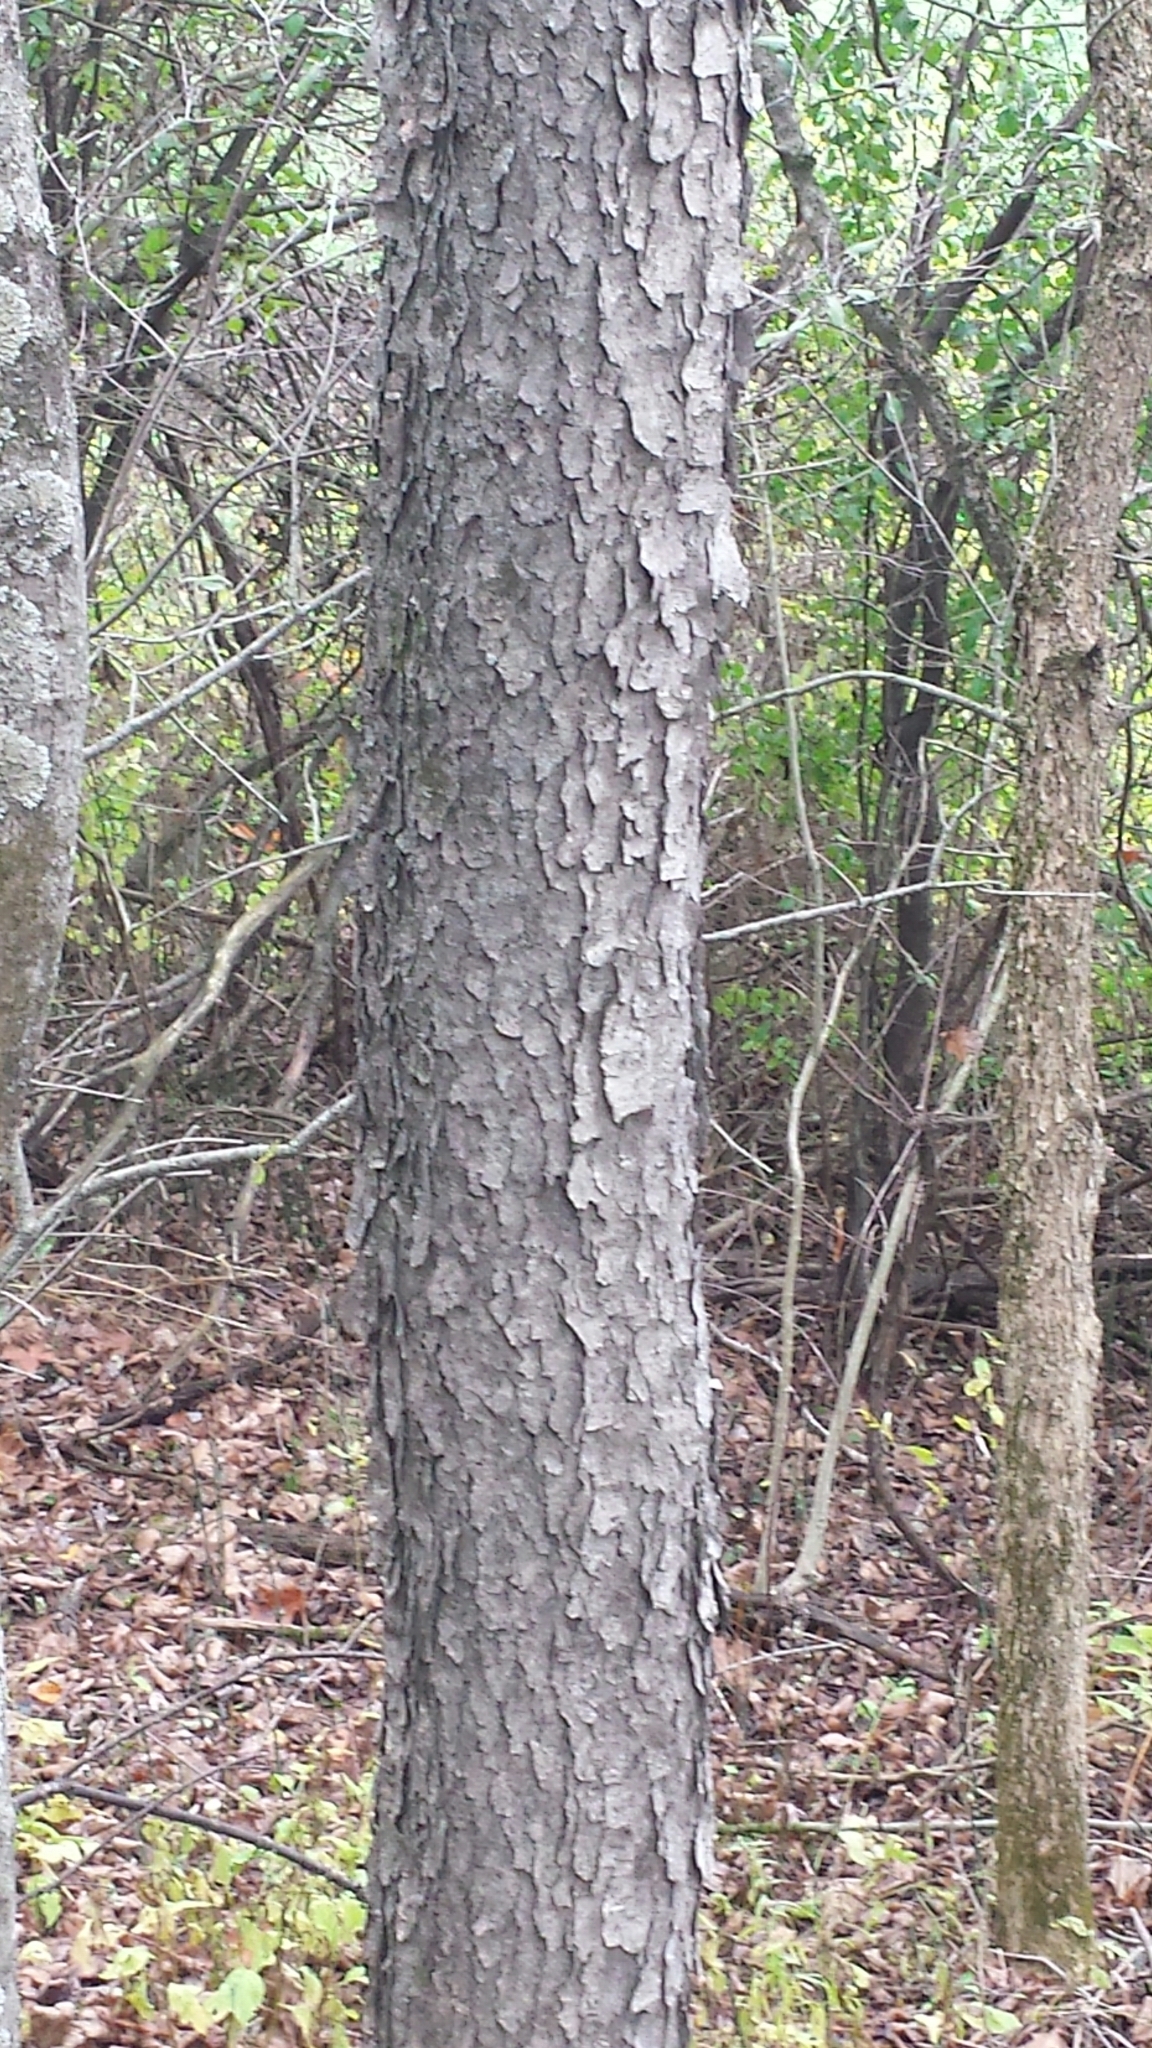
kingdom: Plantae
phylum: Tracheophyta
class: Magnoliopsida
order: Rosales
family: Rosaceae
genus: Prunus
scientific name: Prunus serotina
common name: Black cherry
